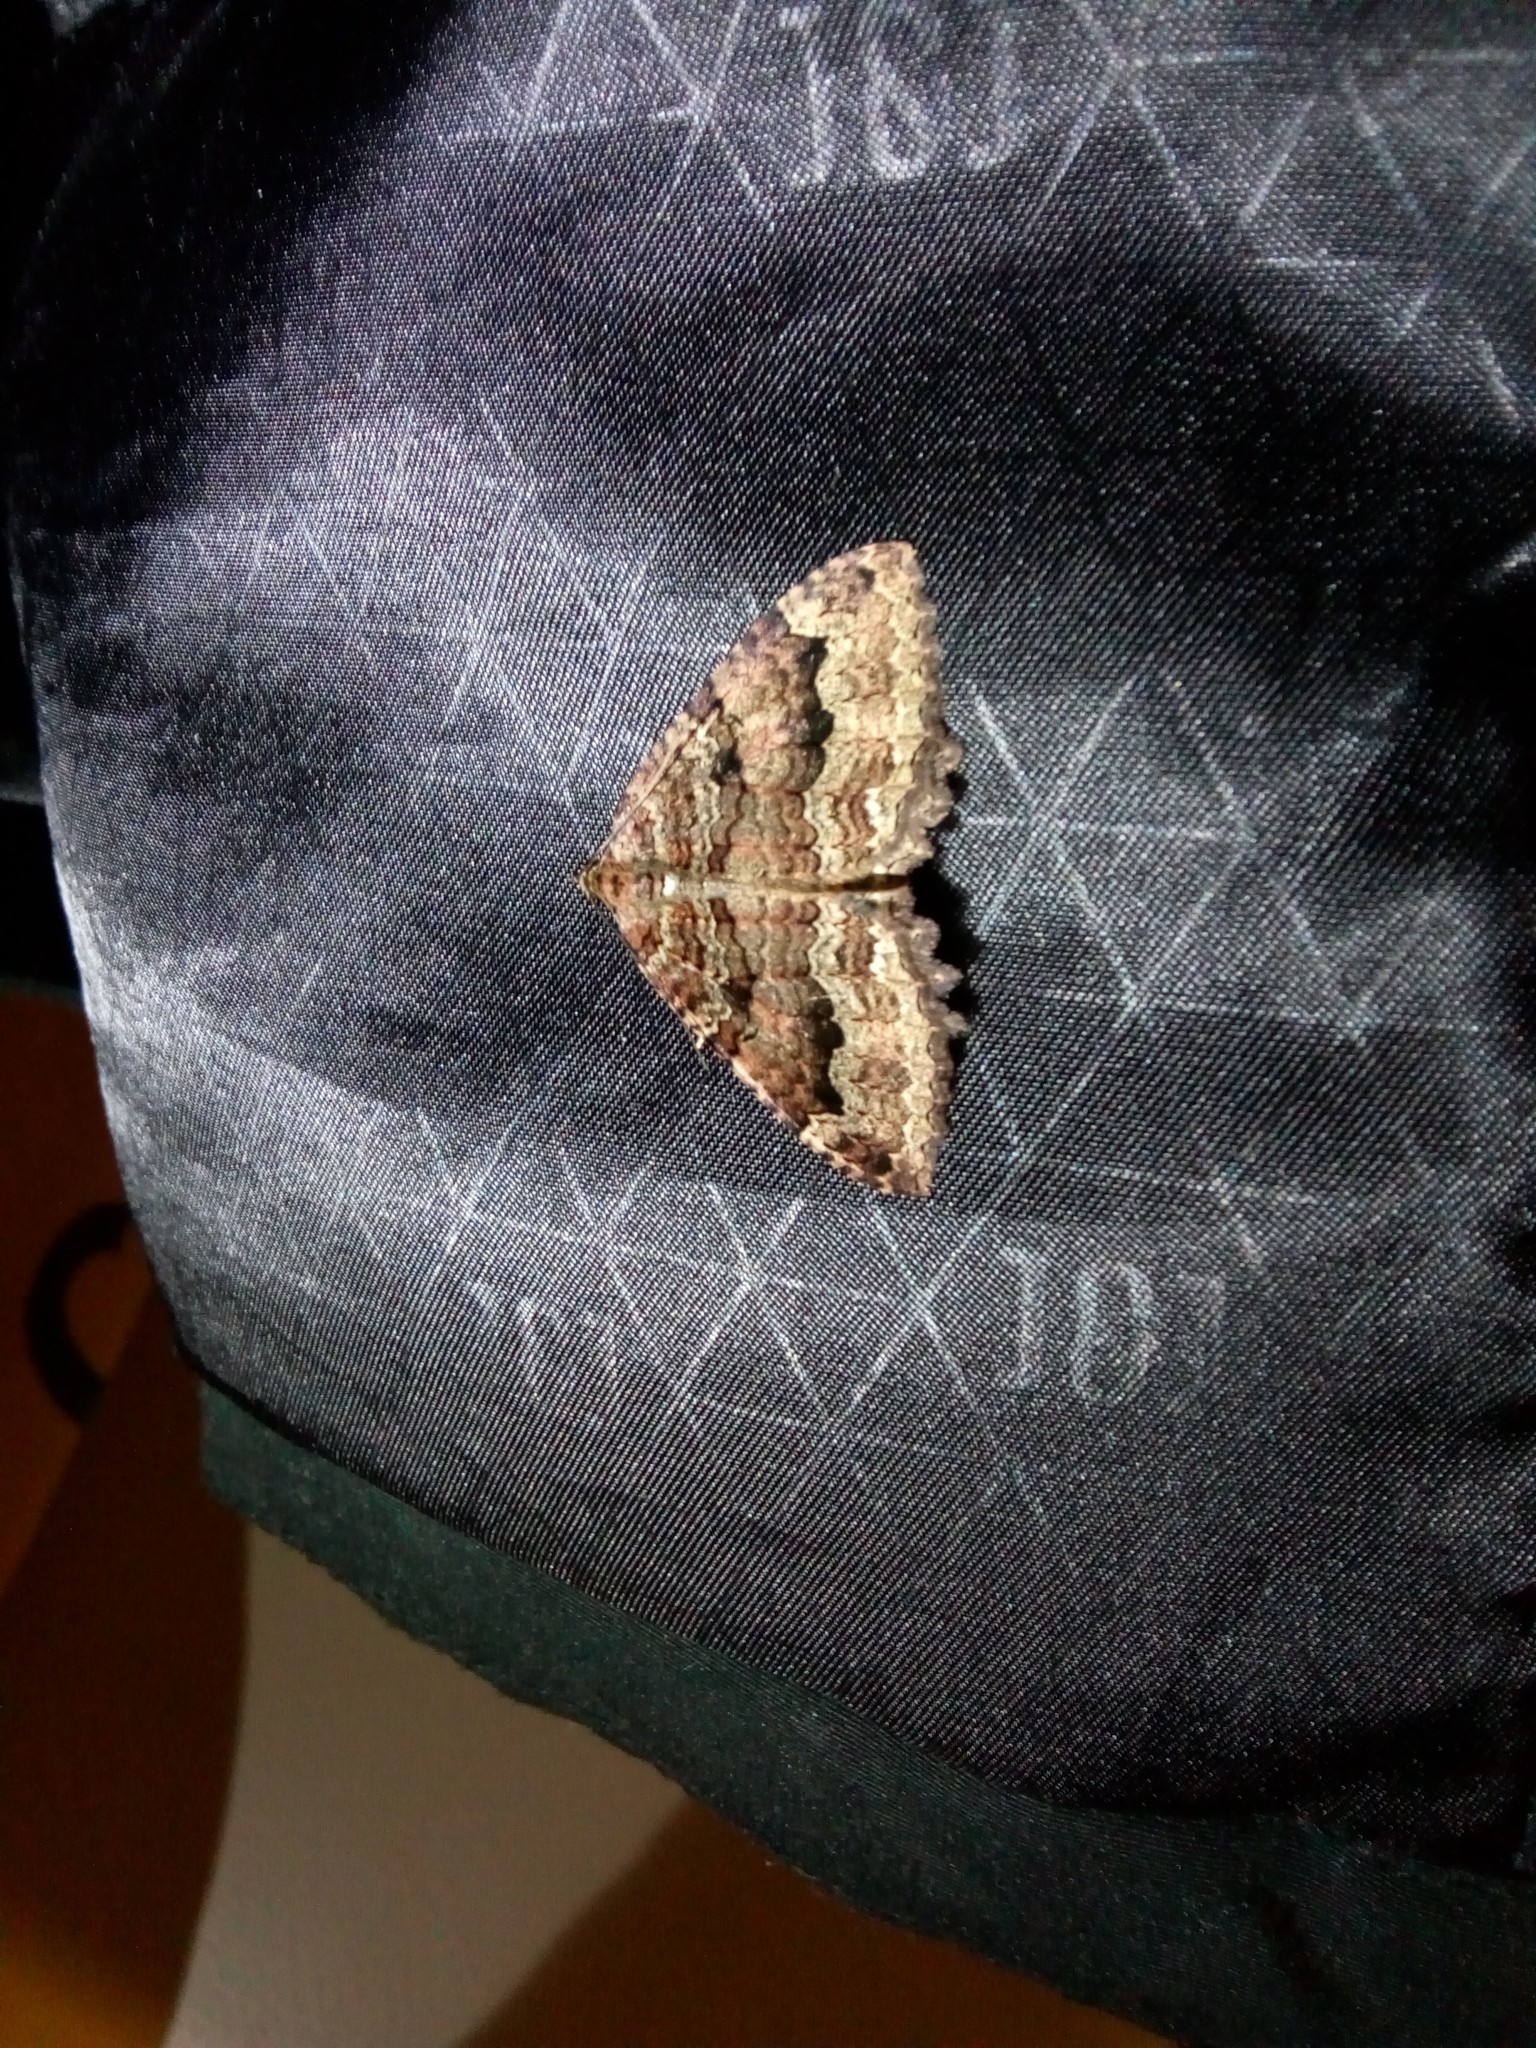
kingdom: Animalia
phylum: Arthropoda
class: Insecta
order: Lepidoptera
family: Geometridae
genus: Triphosa
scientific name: Triphosa dubitata
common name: Tissue
